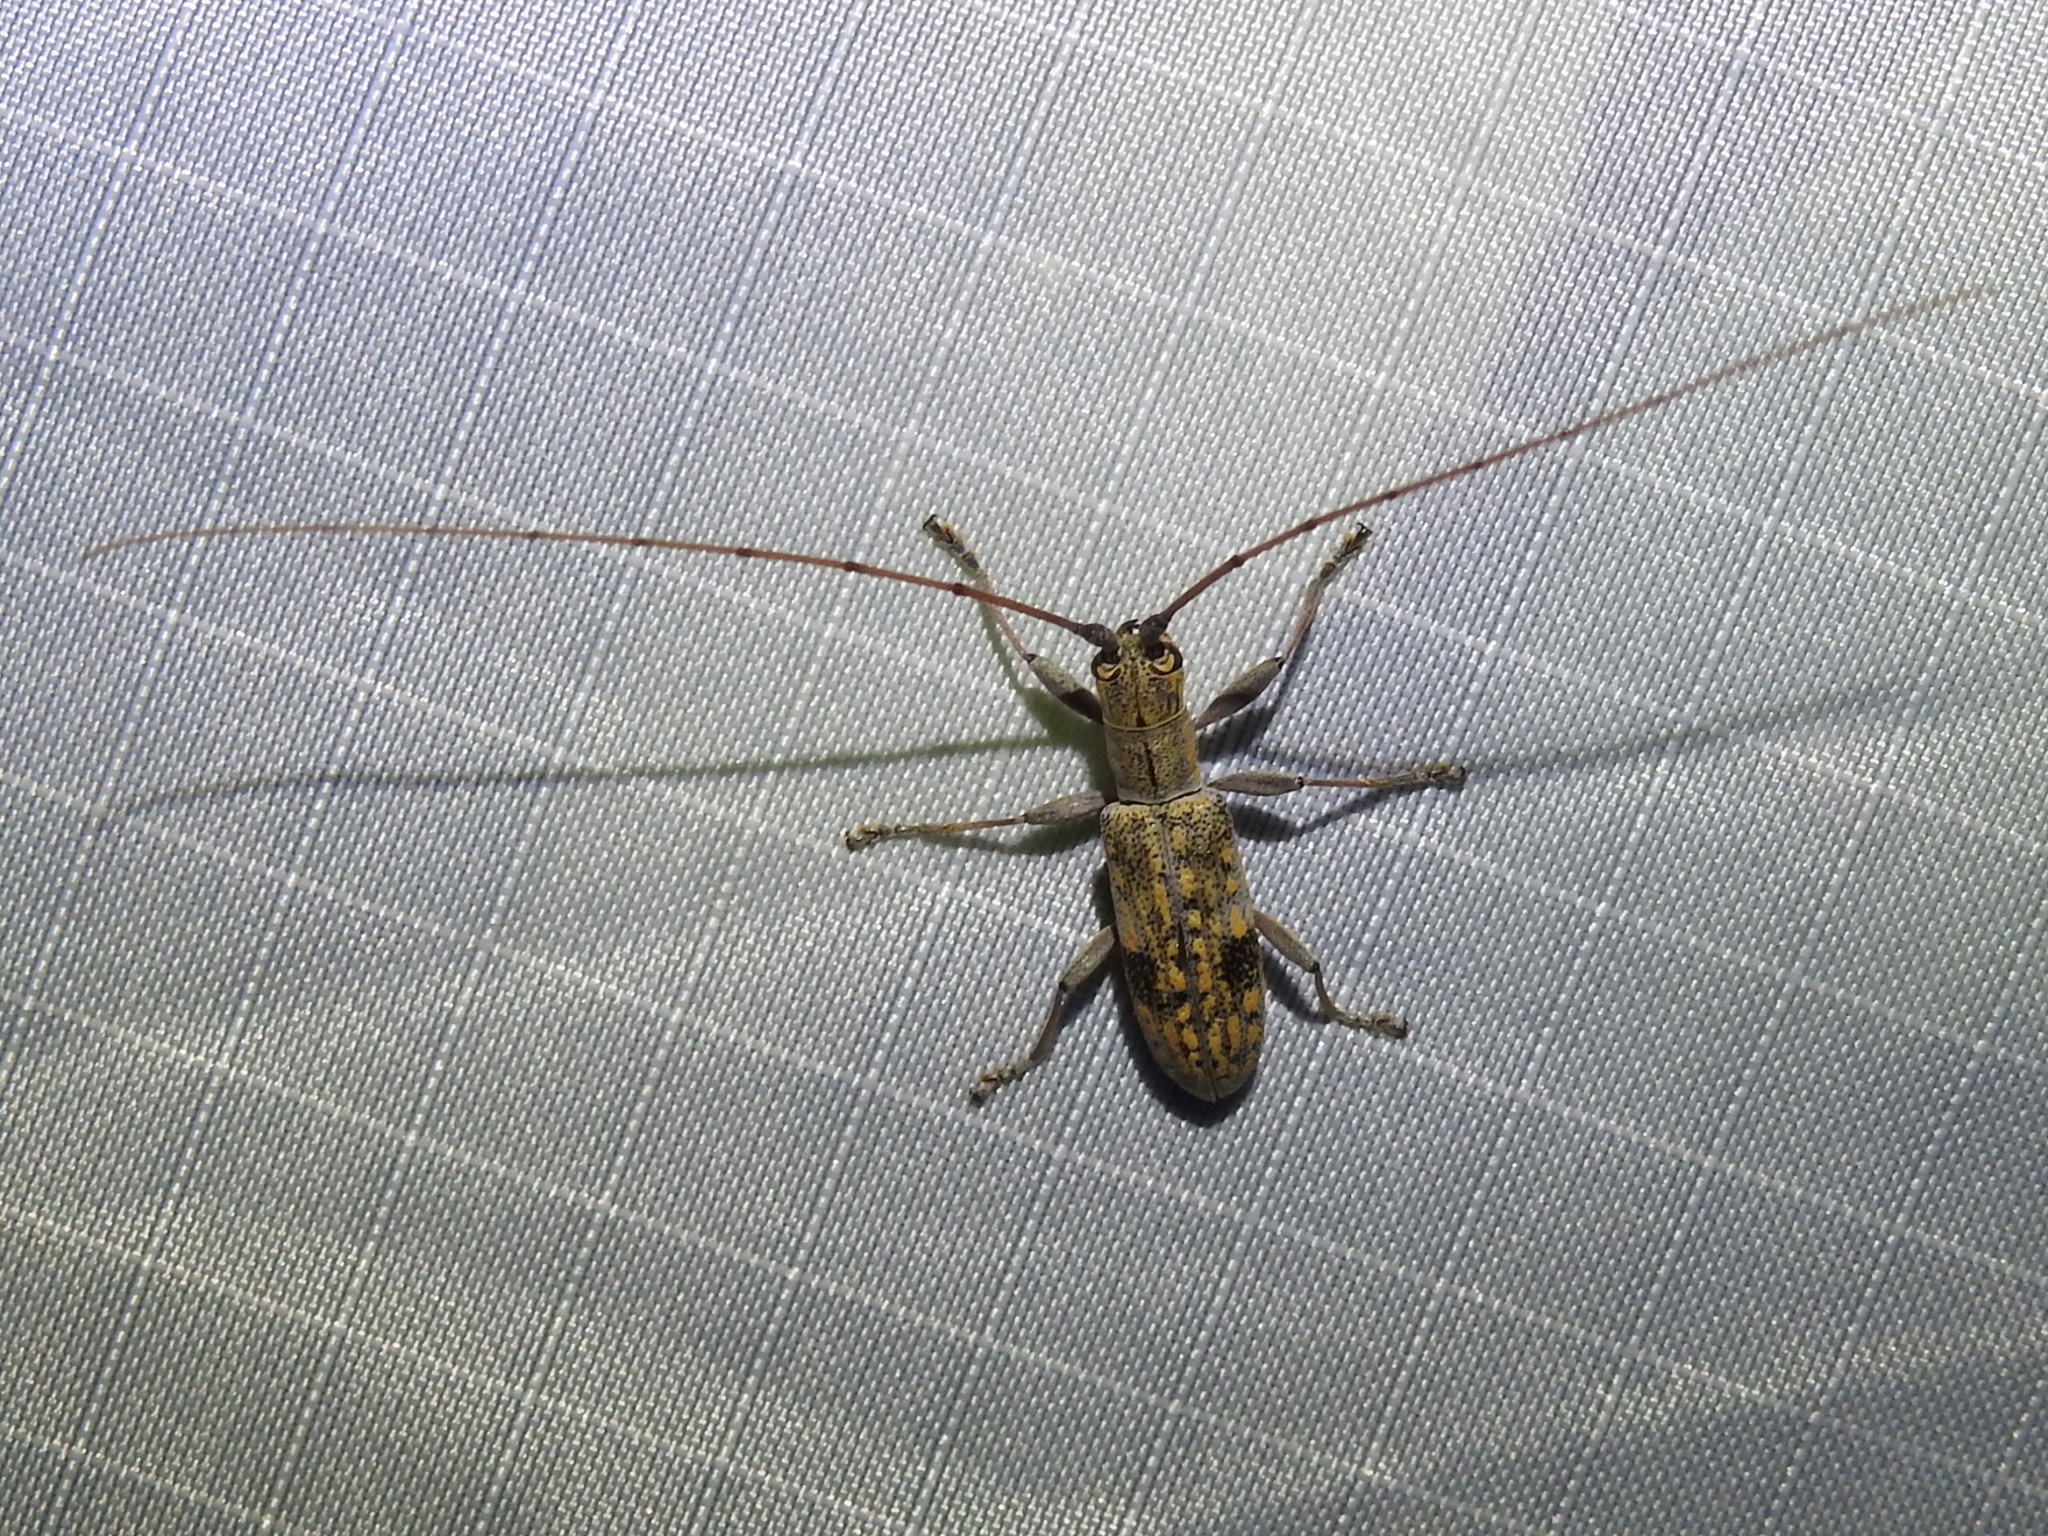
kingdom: Animalia
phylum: Arthropoda
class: Insecta
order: Coleoptera
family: Cerambycidae
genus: Dorcaschema
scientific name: Dorcaschema alternatum
